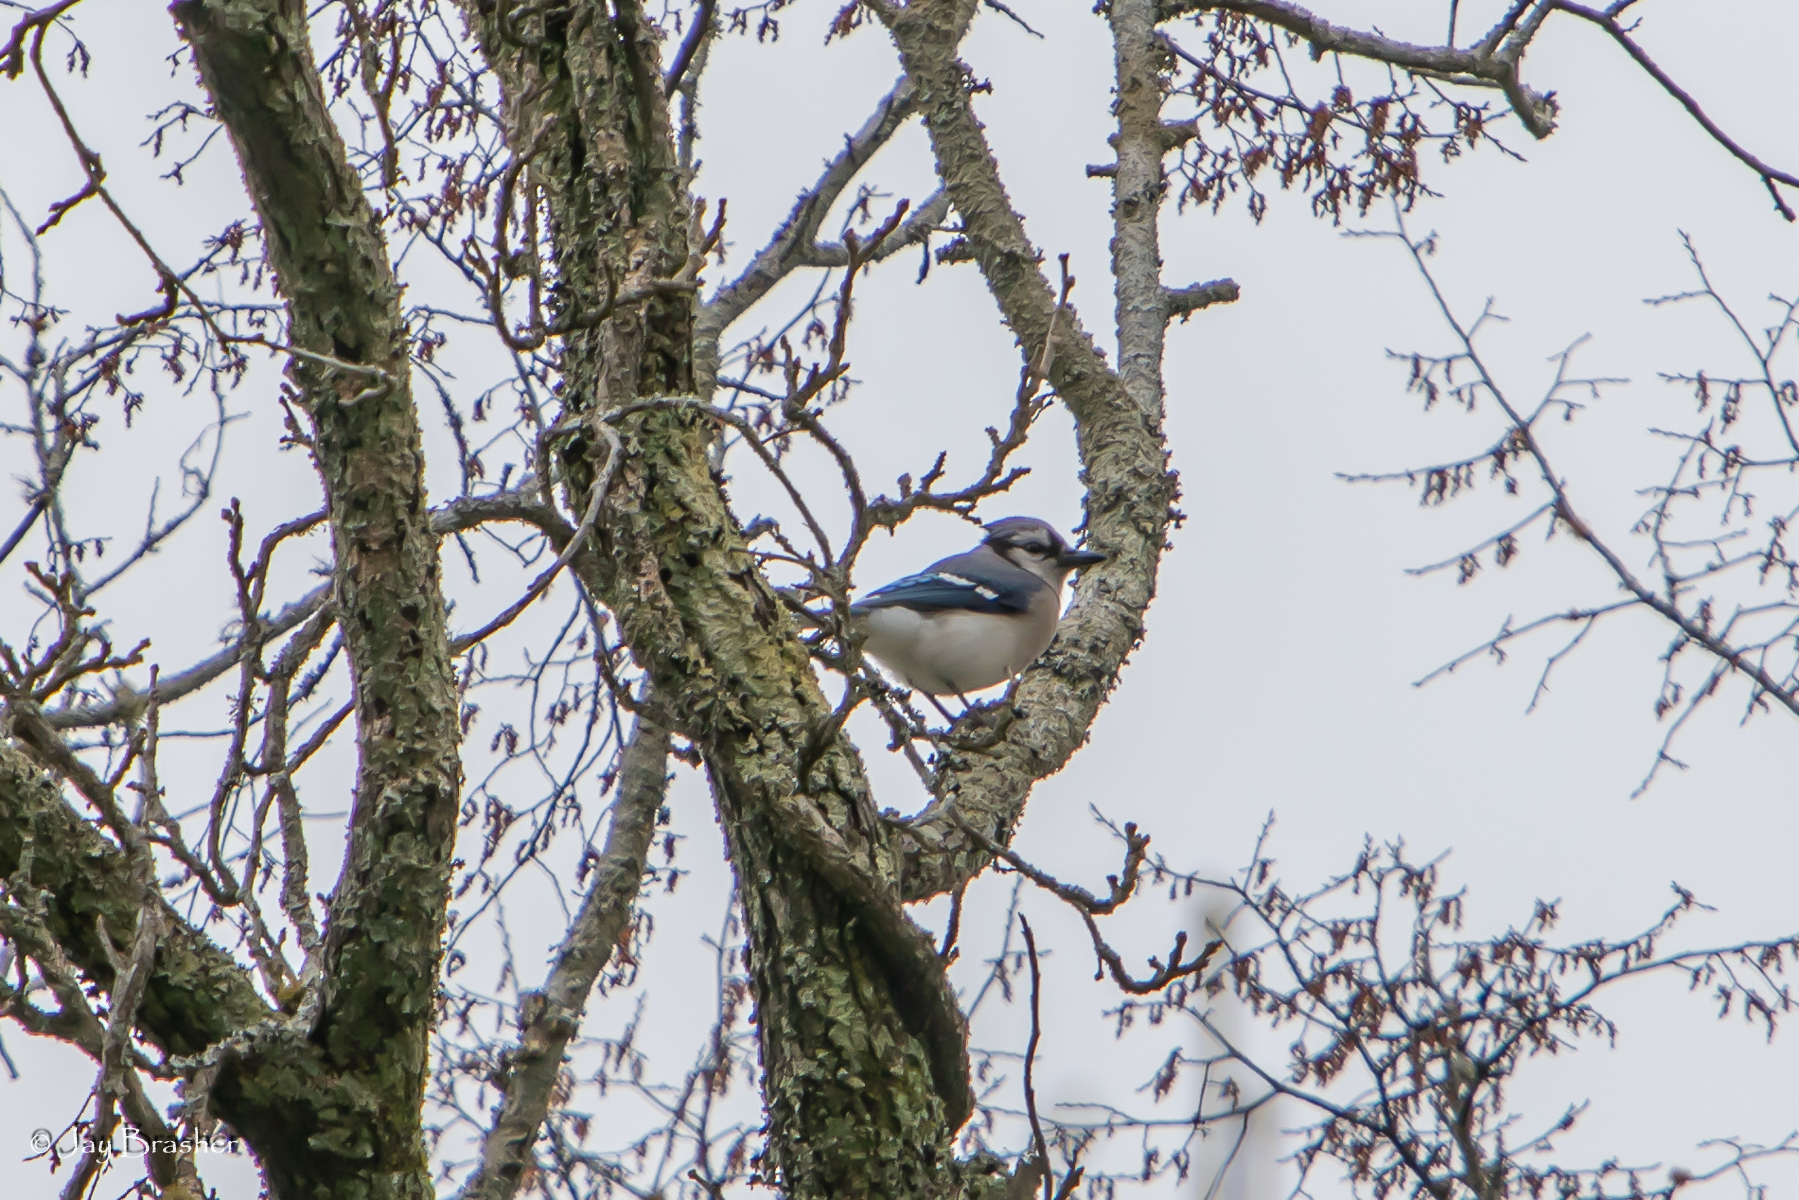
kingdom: Animalia
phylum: Chordata
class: Aves
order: Passeriformes
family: Corvidae
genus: Cyanocitta
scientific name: Cyanocitta cristata
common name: Blue jay
